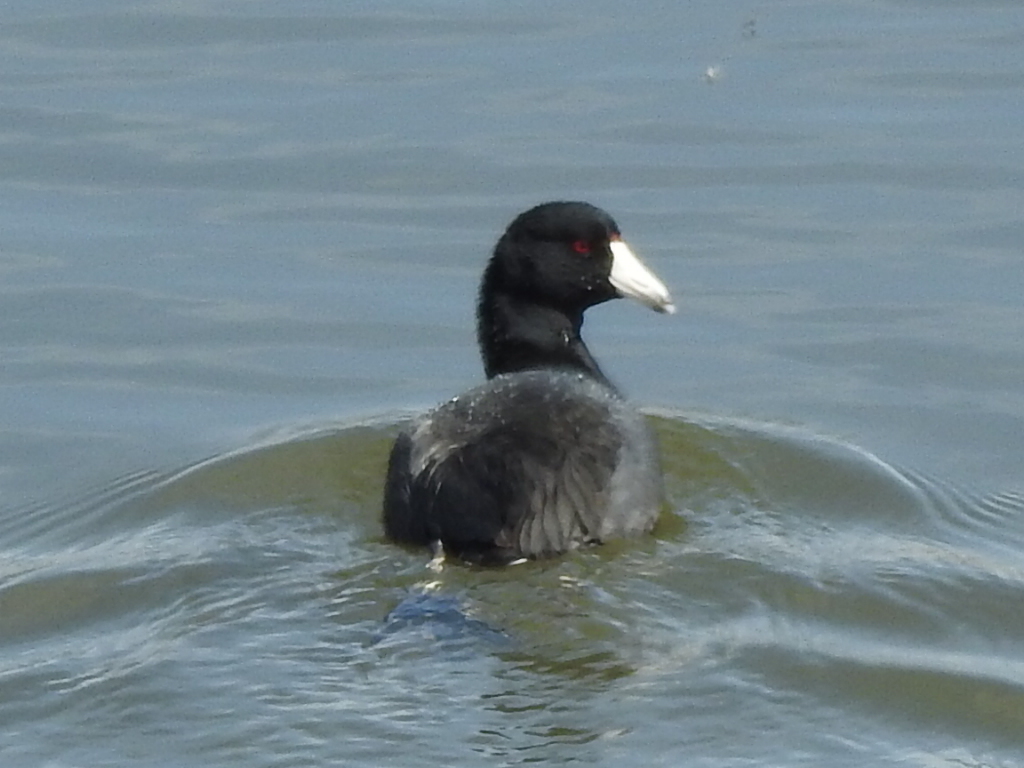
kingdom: Animalia
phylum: Chordata
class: Aves
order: Gruiformes
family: Rallidae
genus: Fulica
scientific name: Fulica americana
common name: American coot
